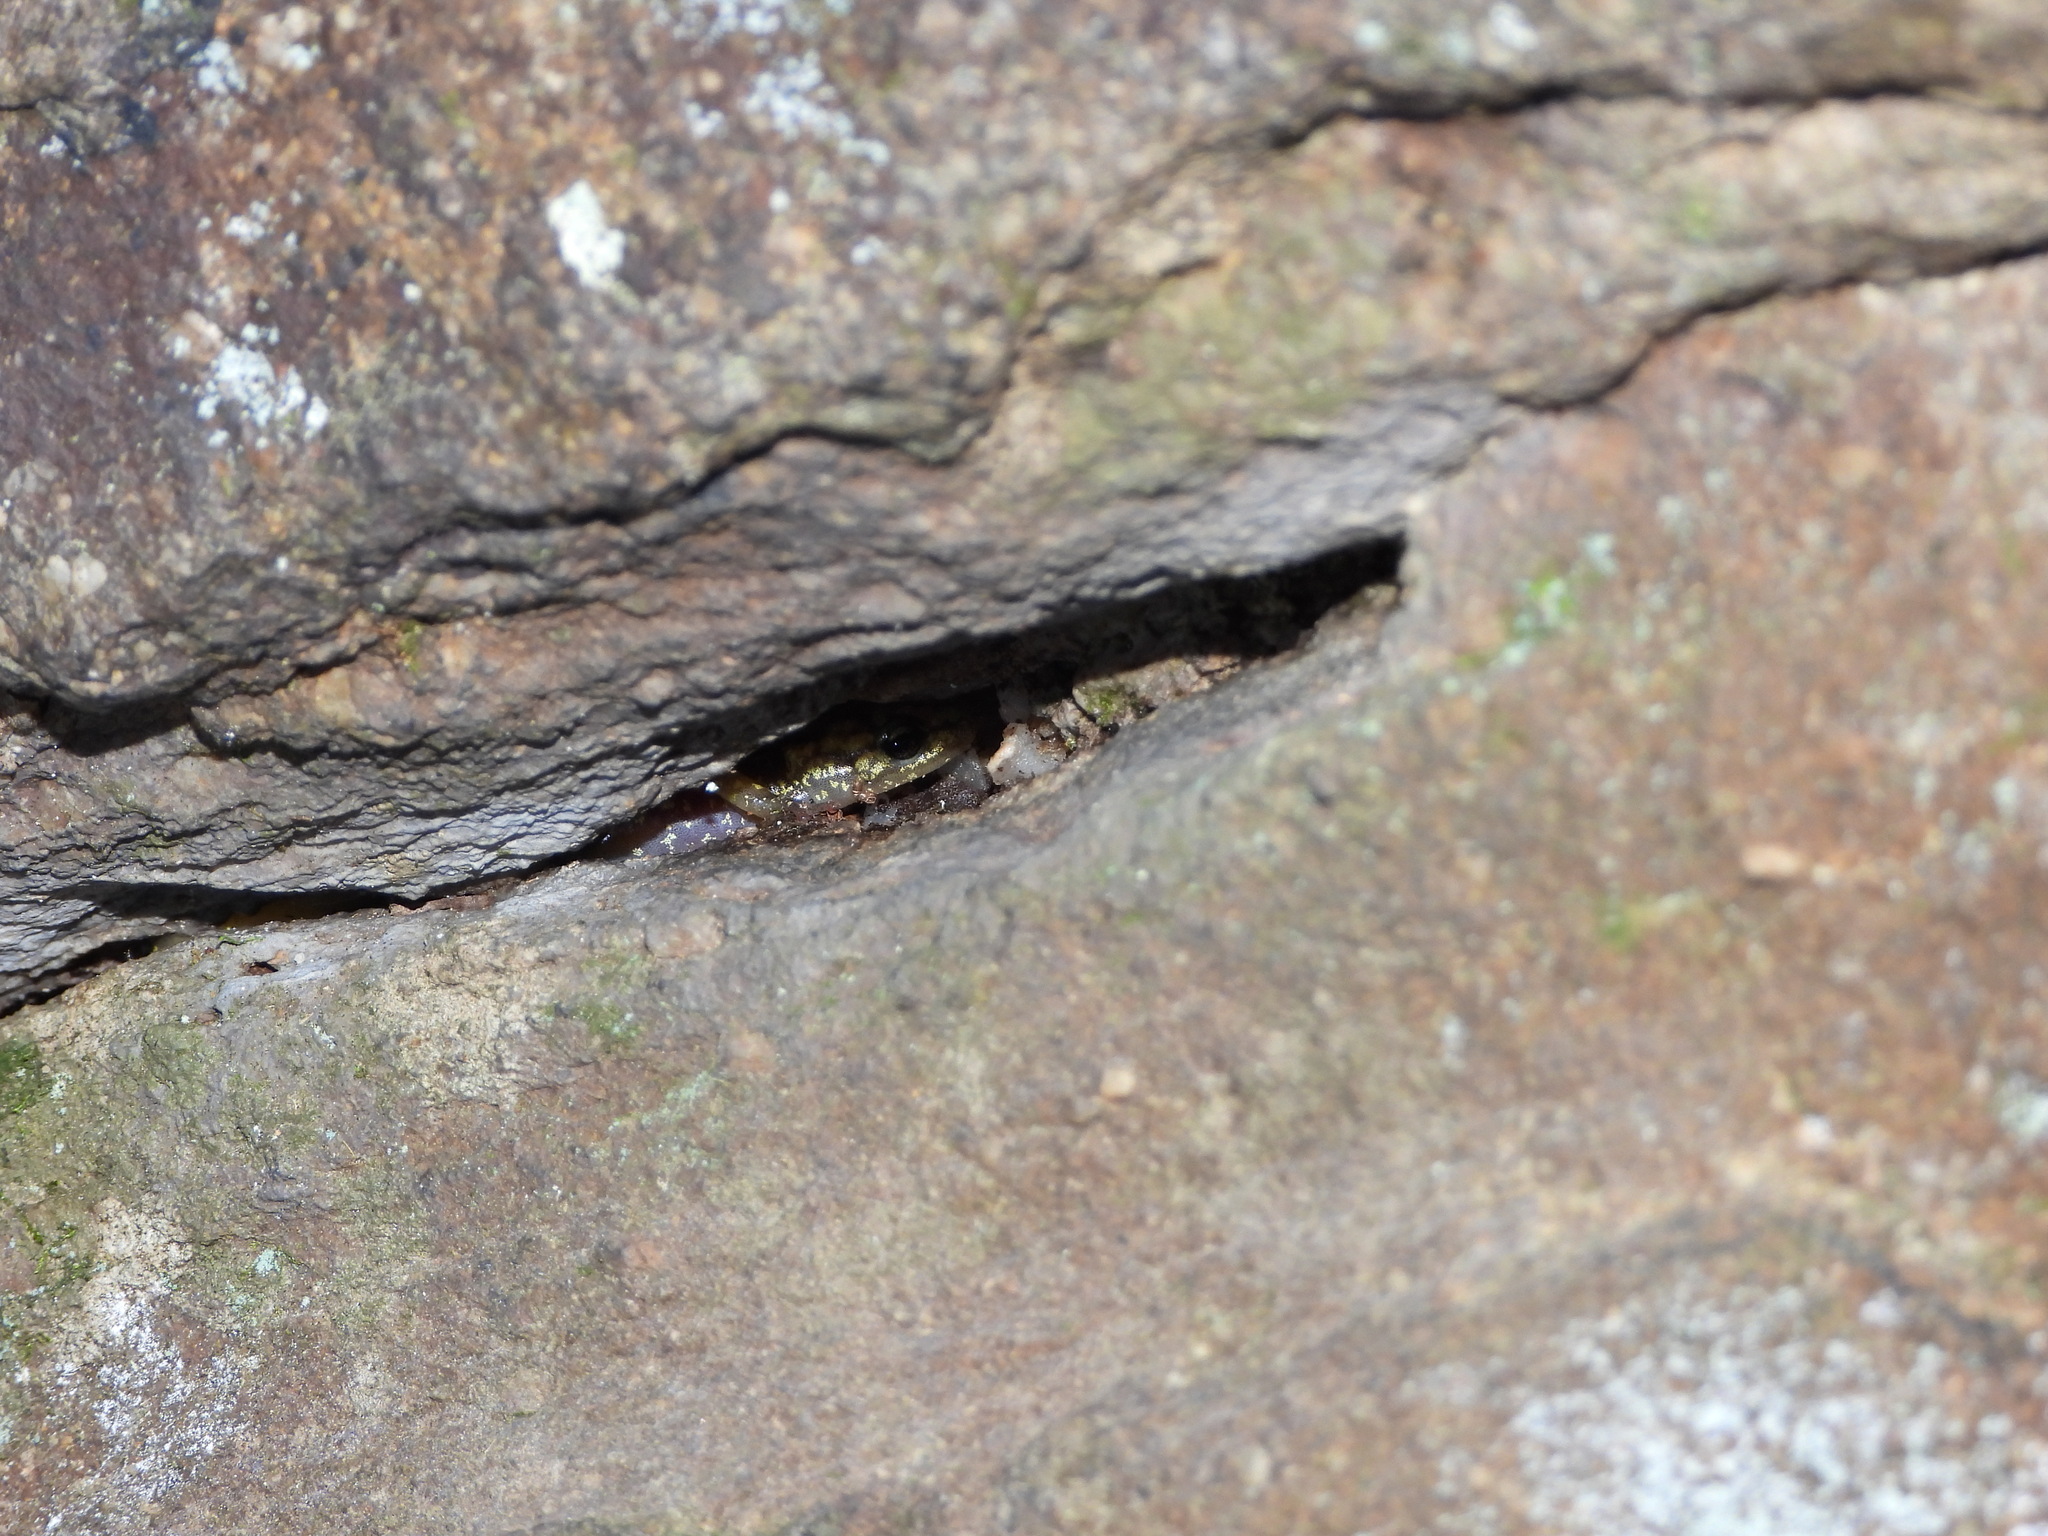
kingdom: Animalia
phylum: Chordata
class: Amphibia
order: Caudata
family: Plethodontidae
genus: Aneides
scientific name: Aneides aeneus
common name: Green salamander
